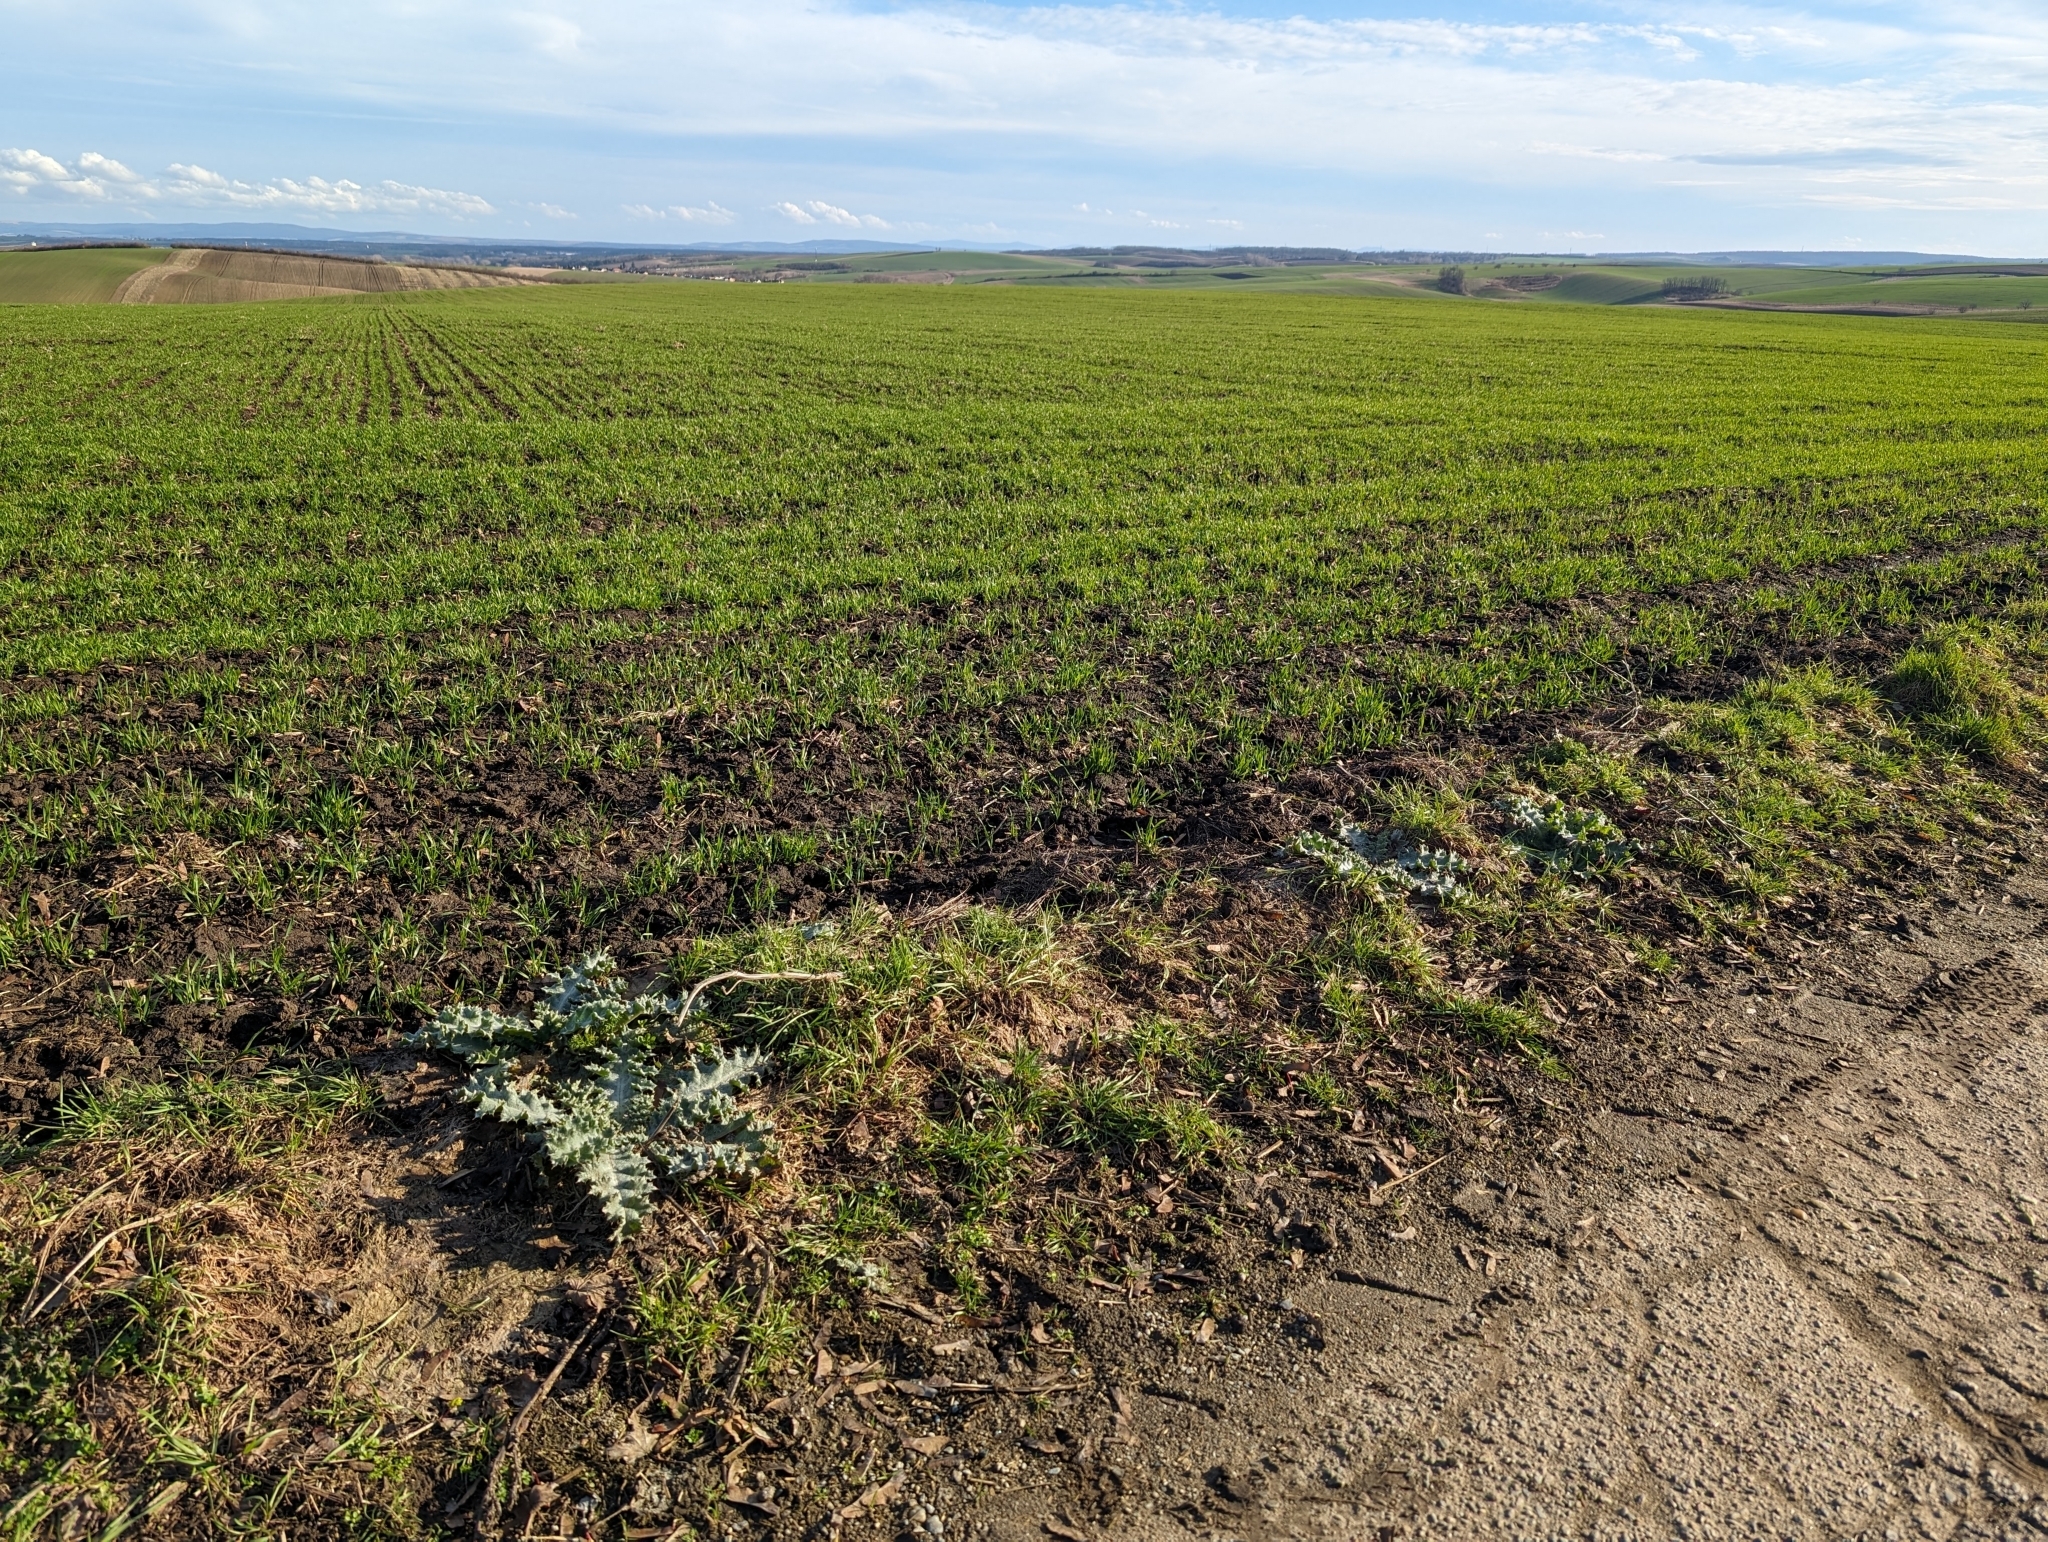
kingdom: Plantae
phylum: Tracheophyta
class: Magnoliopsida
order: Asterales
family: Asteraceae
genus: Onopordum
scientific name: Onopordum acanthium
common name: Scotch thistle
